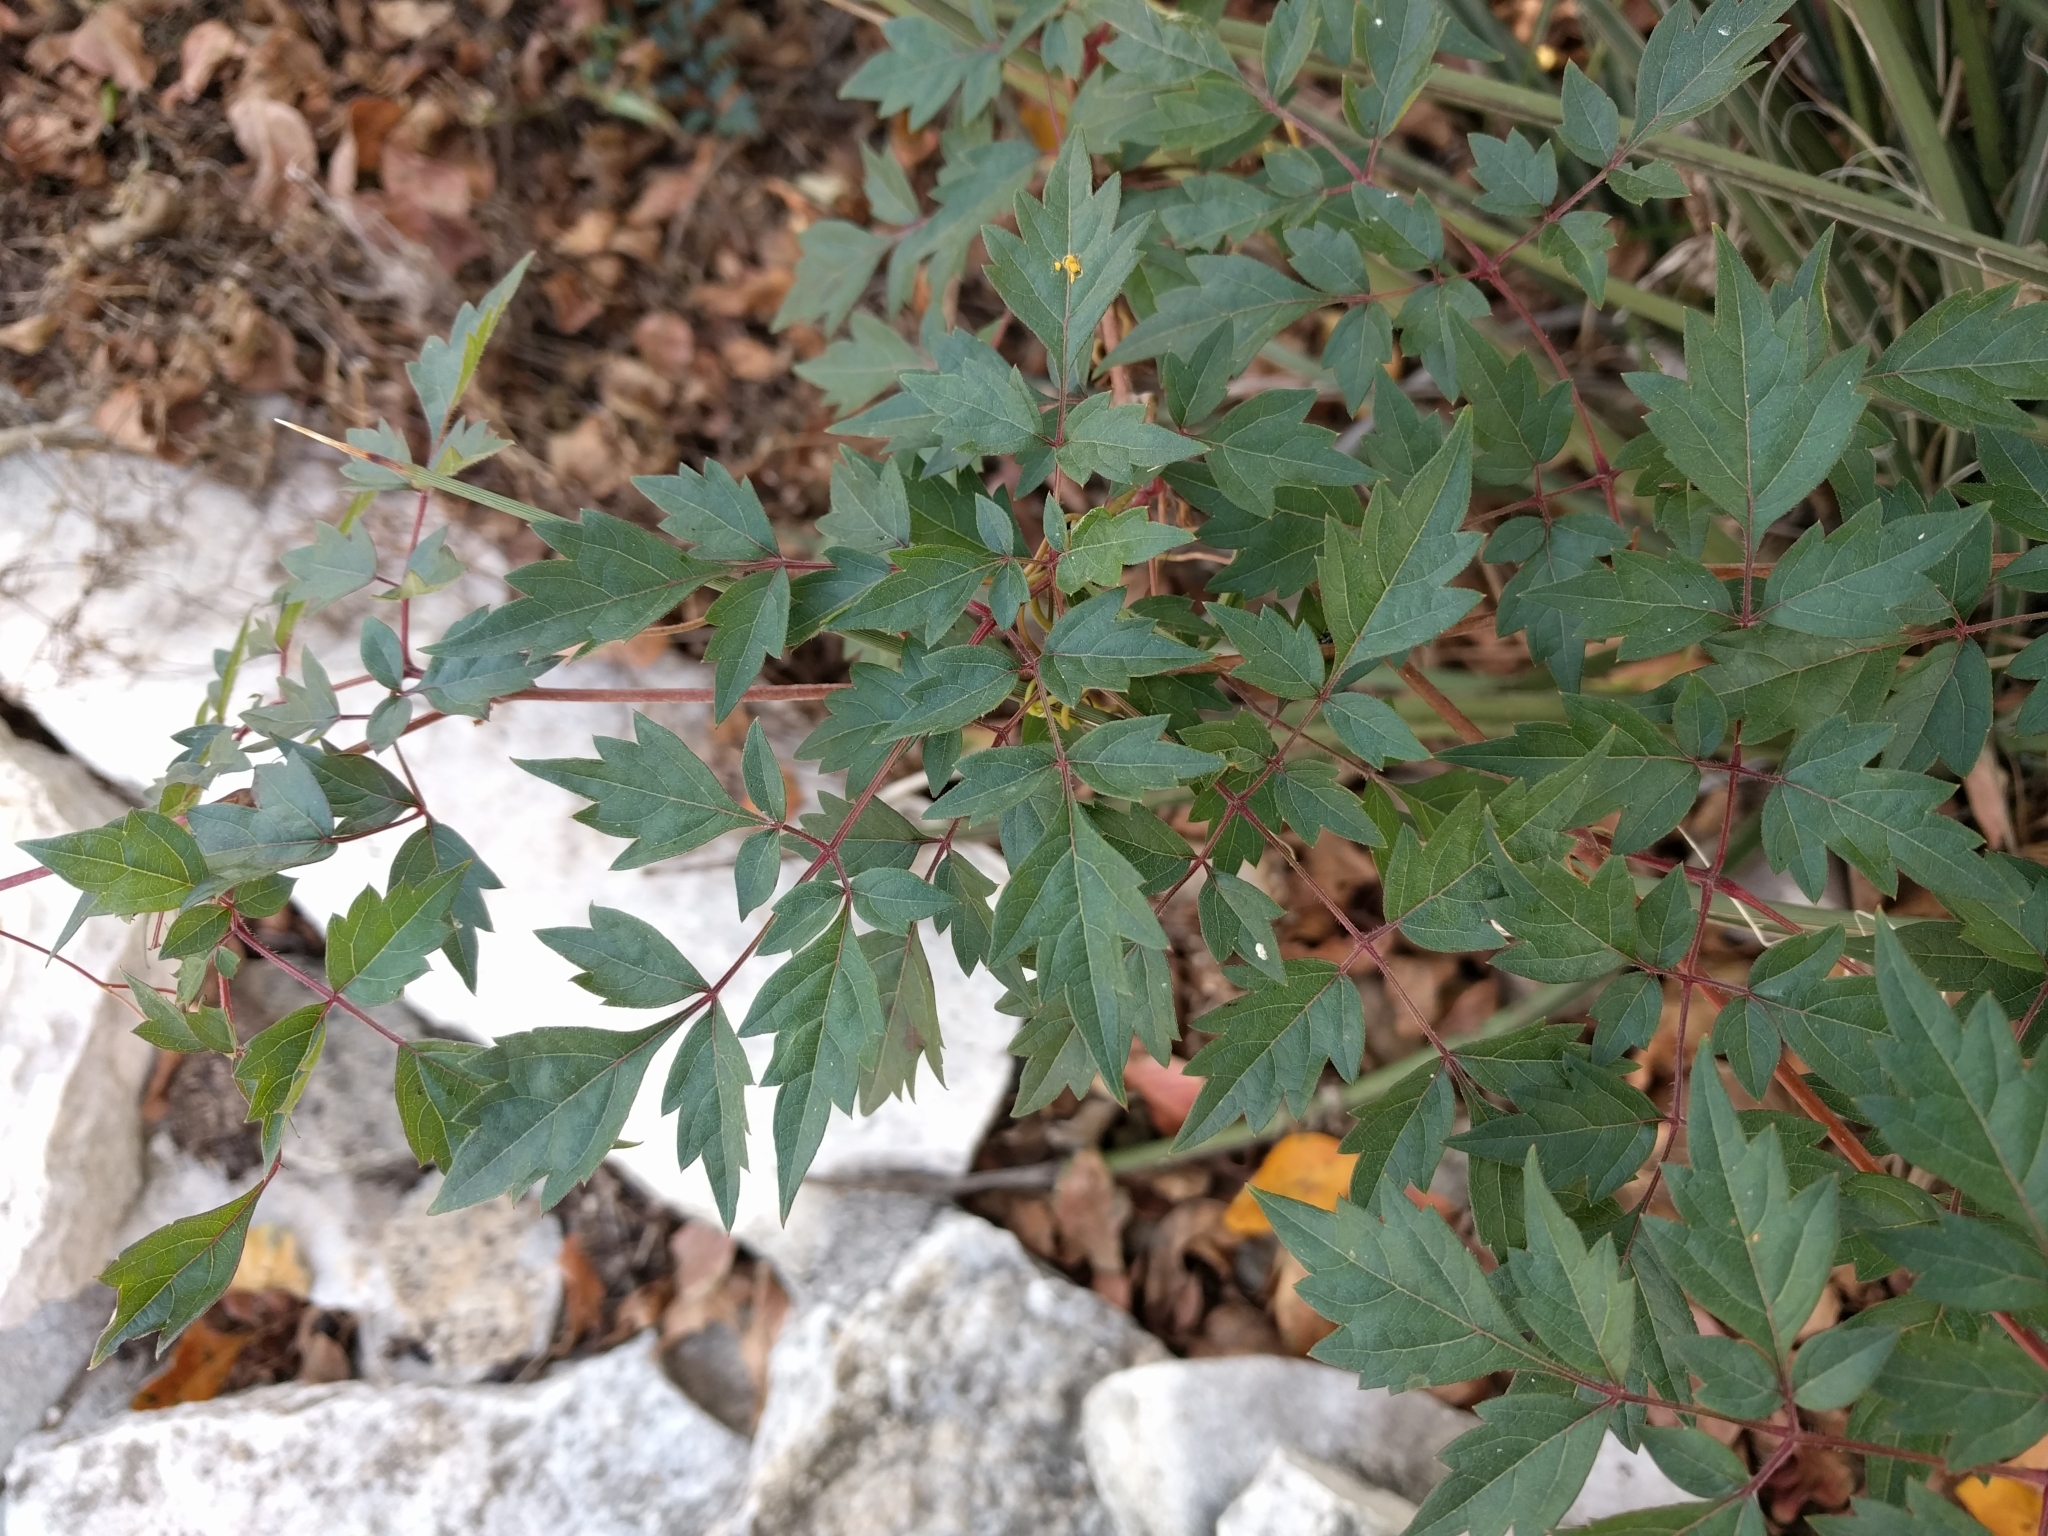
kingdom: Plantae
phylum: Tracheophyta
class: Magnoliopsida
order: Vitales
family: Vitaceae
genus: Nekemias
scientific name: Nekemias arborea
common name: Peppervine
